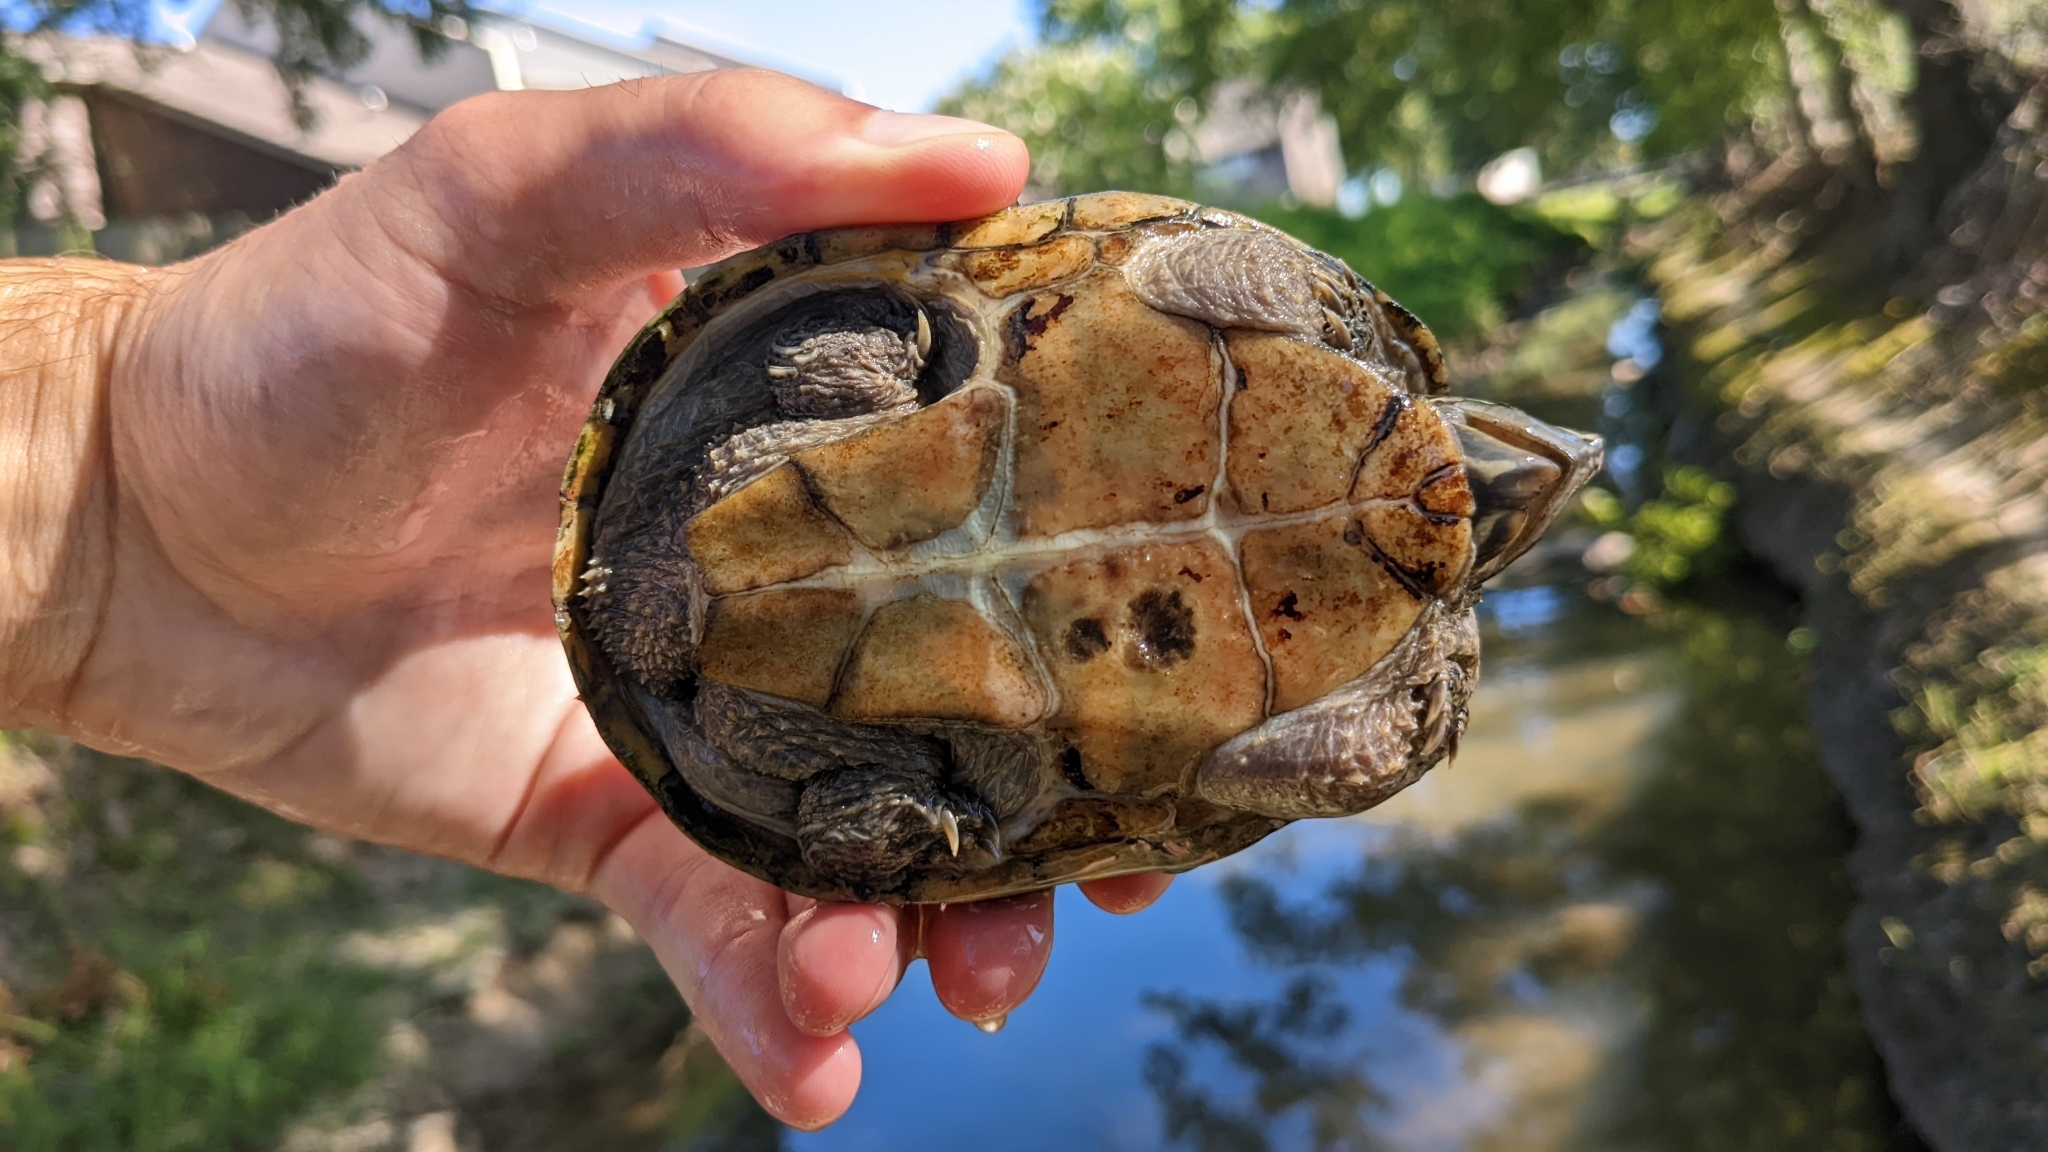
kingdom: Animalia
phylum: Chordata
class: Testudines
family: Kinosternidae
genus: Sternotherus
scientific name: Sternotherus odoratus
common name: Common musk turtle
